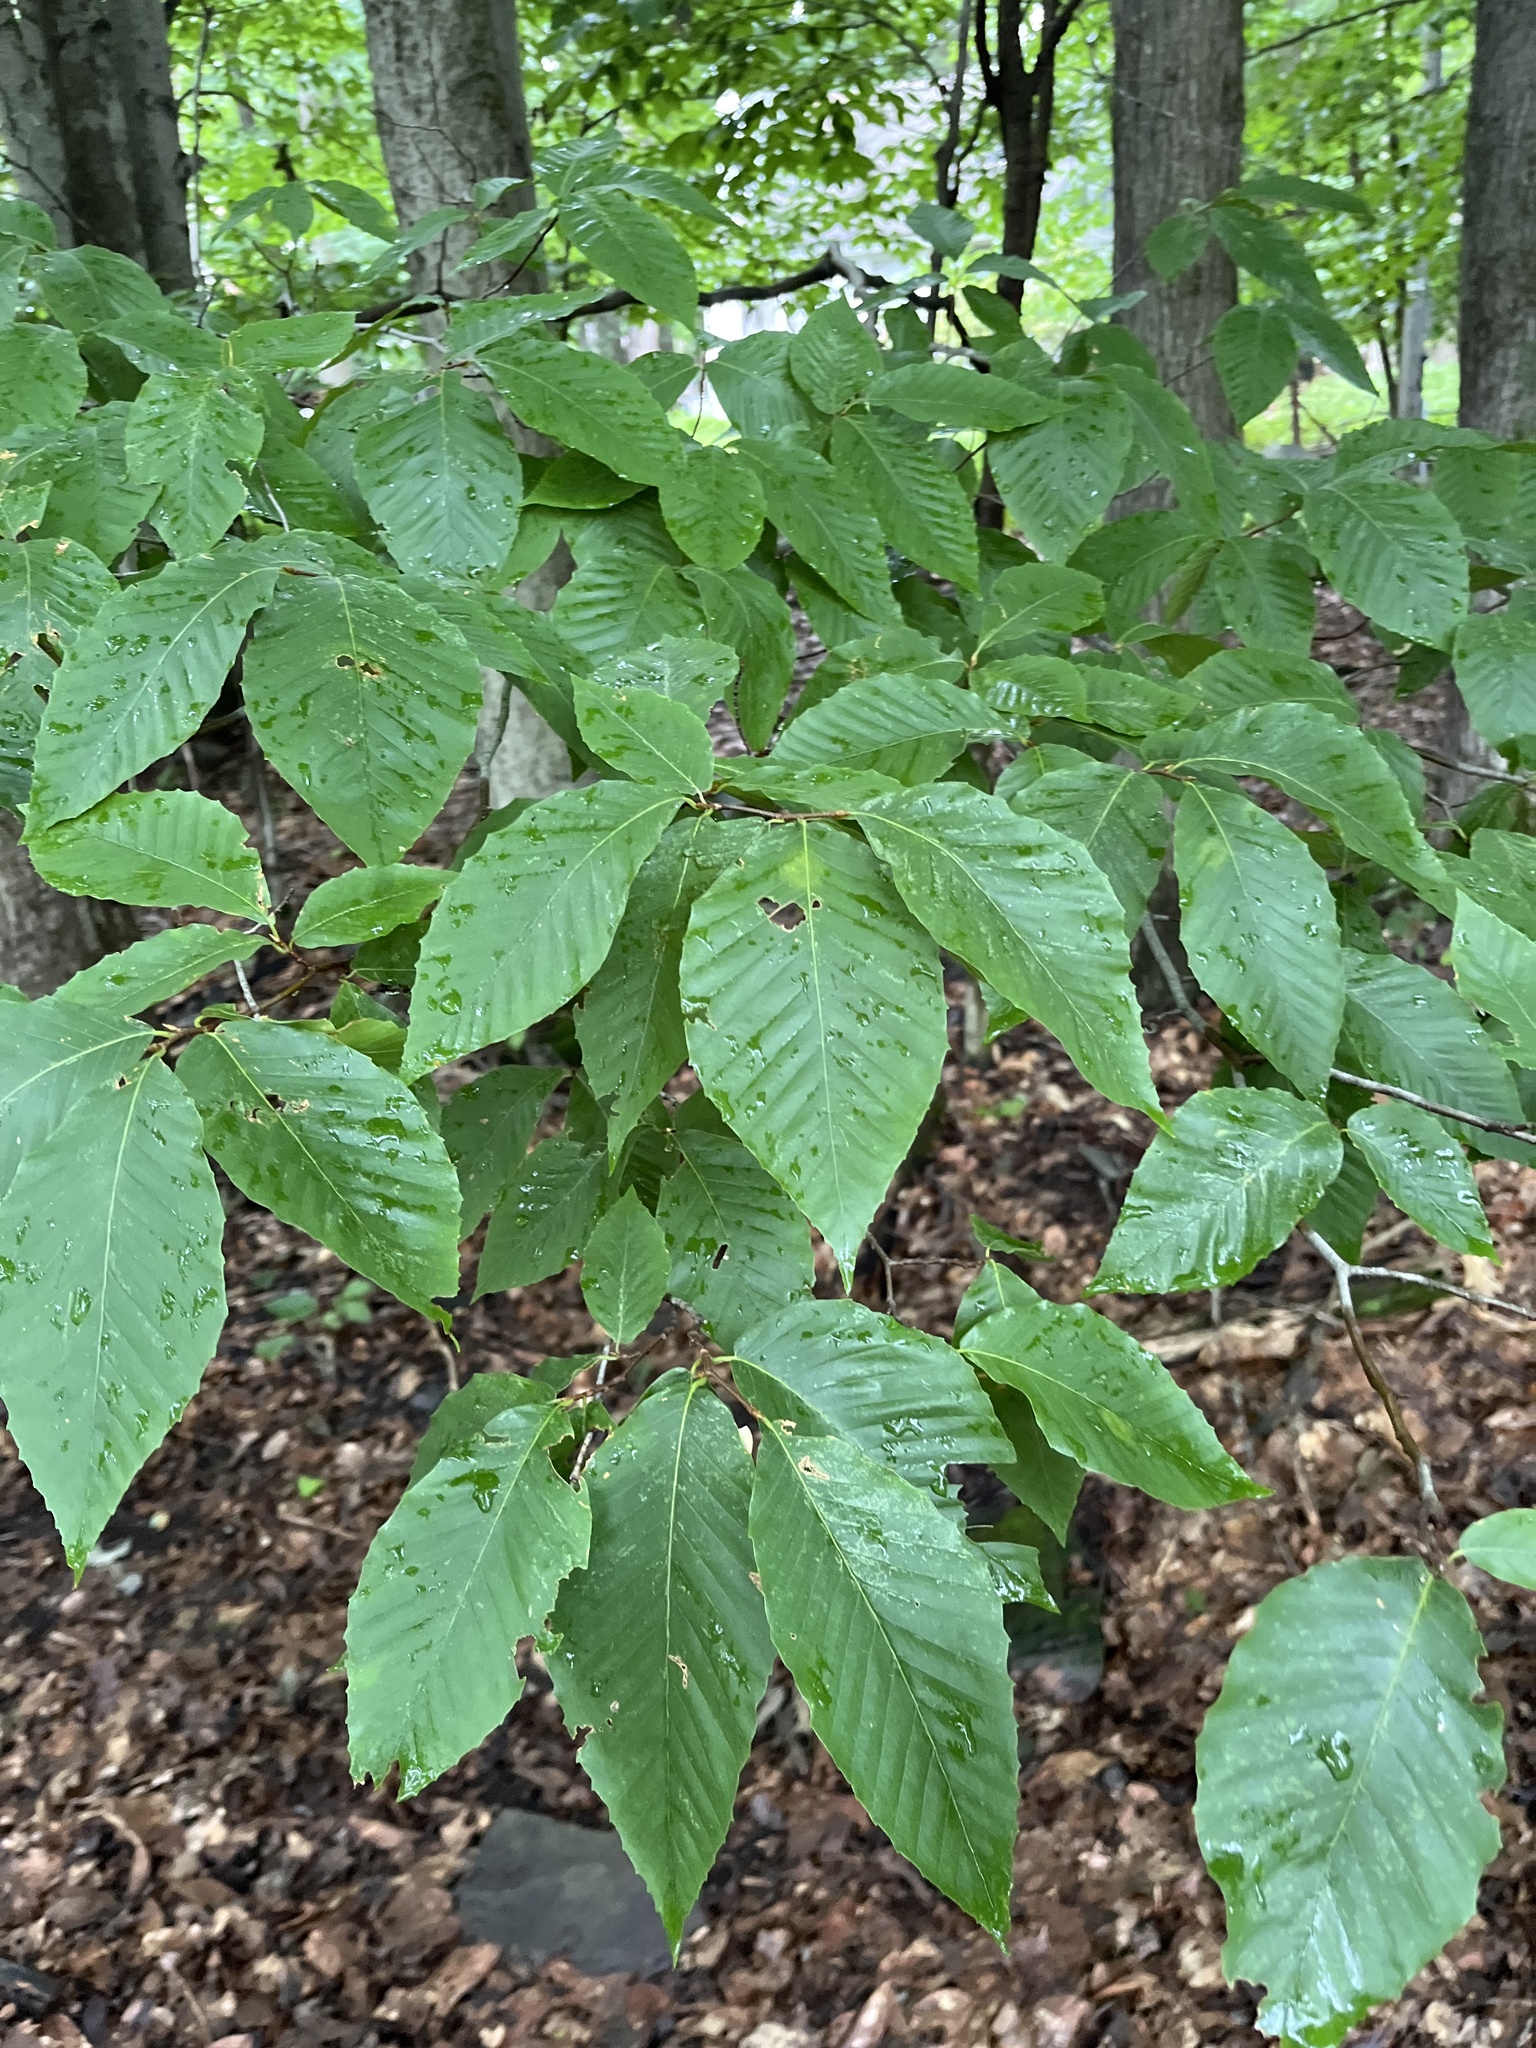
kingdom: Plantae
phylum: Tracheophyta
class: Magnoliopsida
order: Fagales
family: Fagaceae
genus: Fagus
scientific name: Fagus grandifolia
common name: American beech
